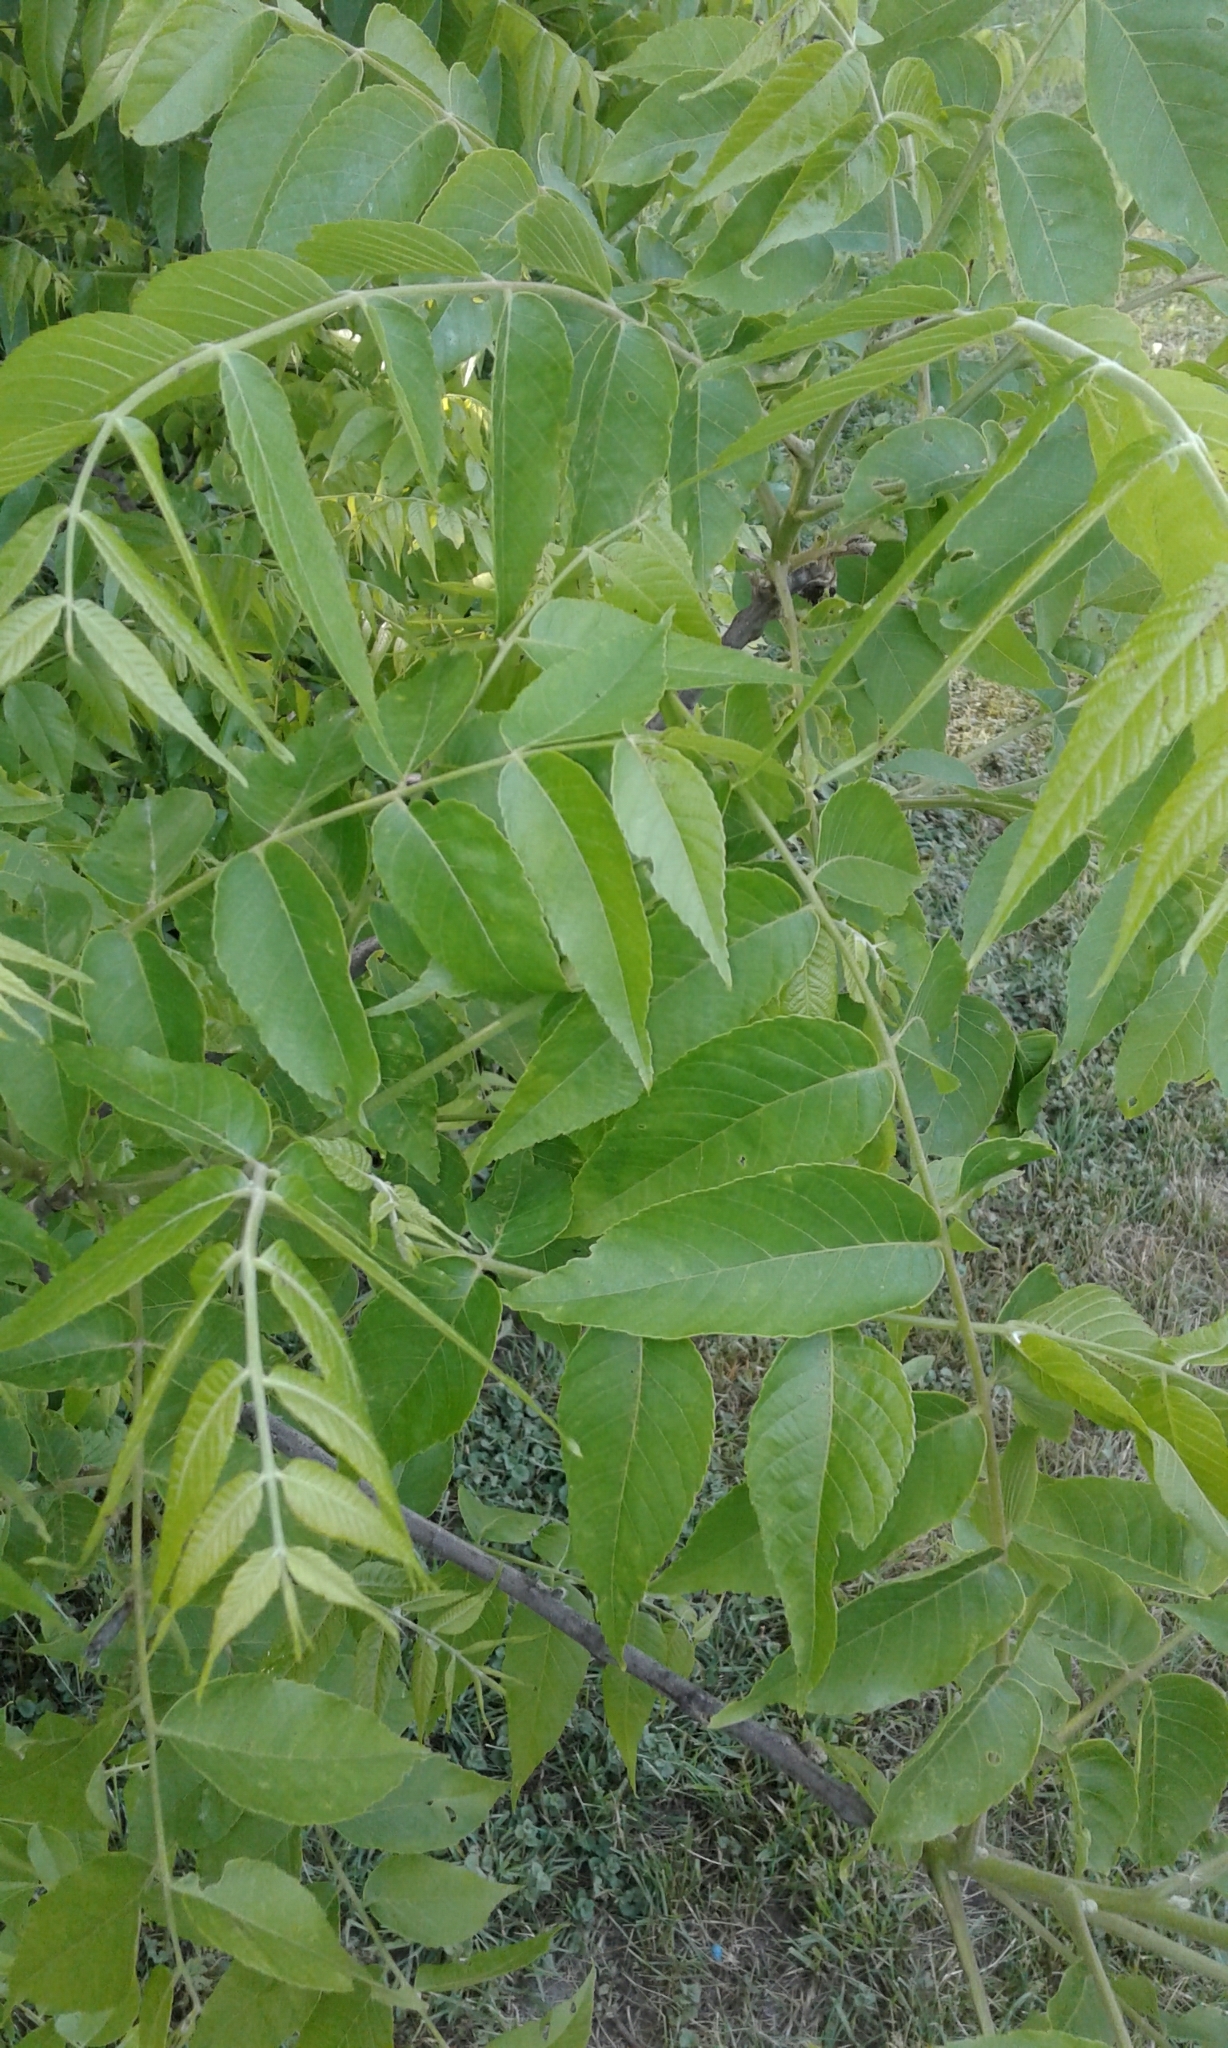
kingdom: Plantae
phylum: Tracheophyta
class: Magnoliopsida
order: Fagales
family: Juglandaceae
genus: Juglans
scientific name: Juglans nigra
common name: Black walnut
